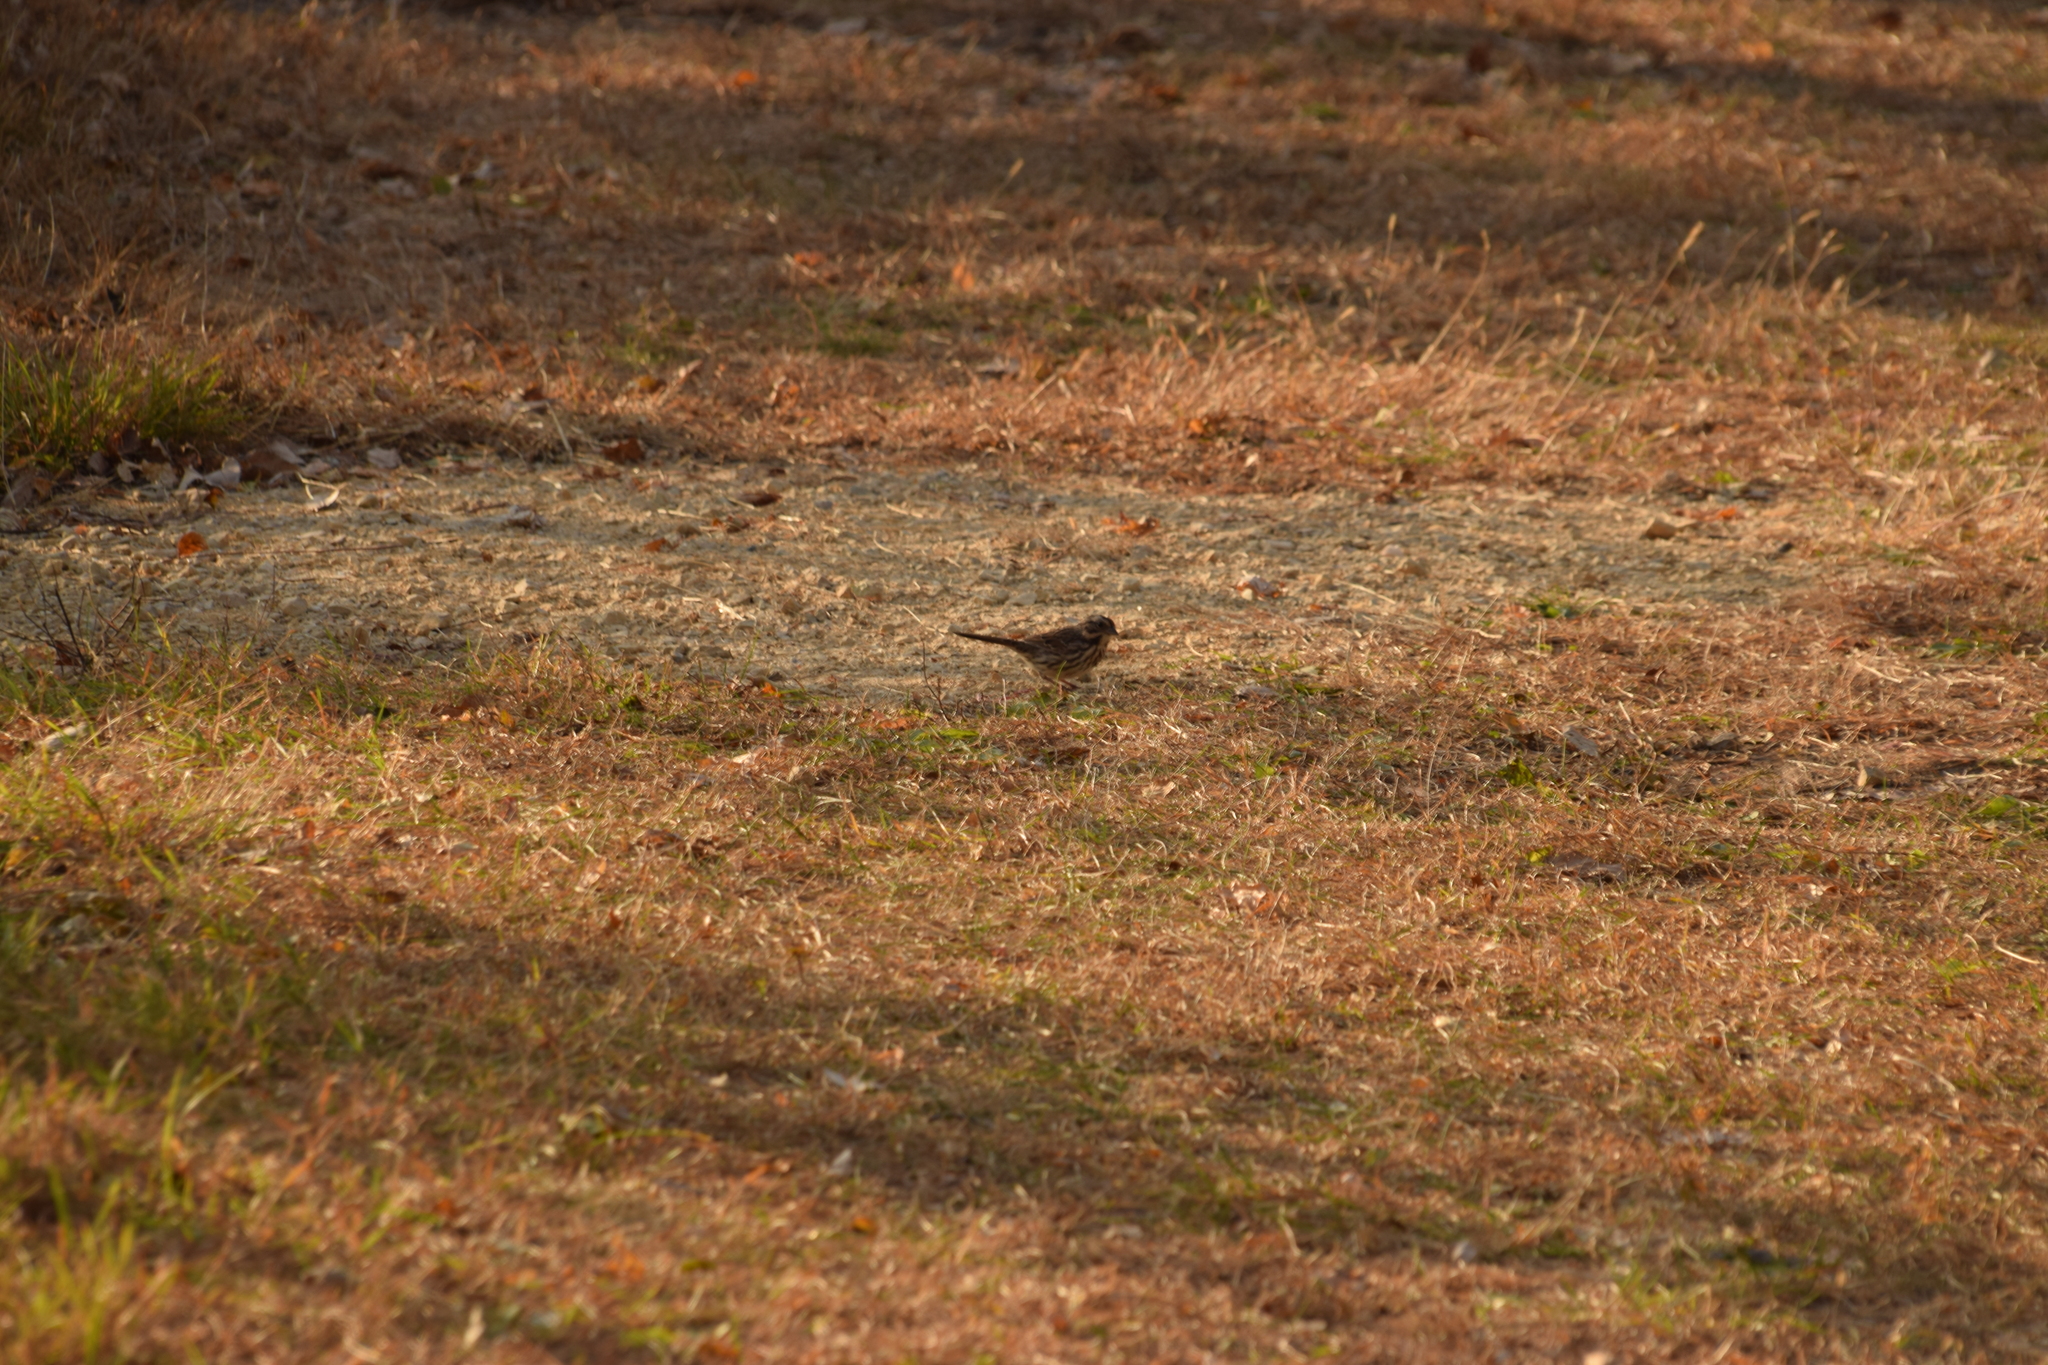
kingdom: Animalia
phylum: Chordata
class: Aves
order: Passeriformes
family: Passerellidae
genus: Melospiza
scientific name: Melospiza melodia
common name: Song sparrow
